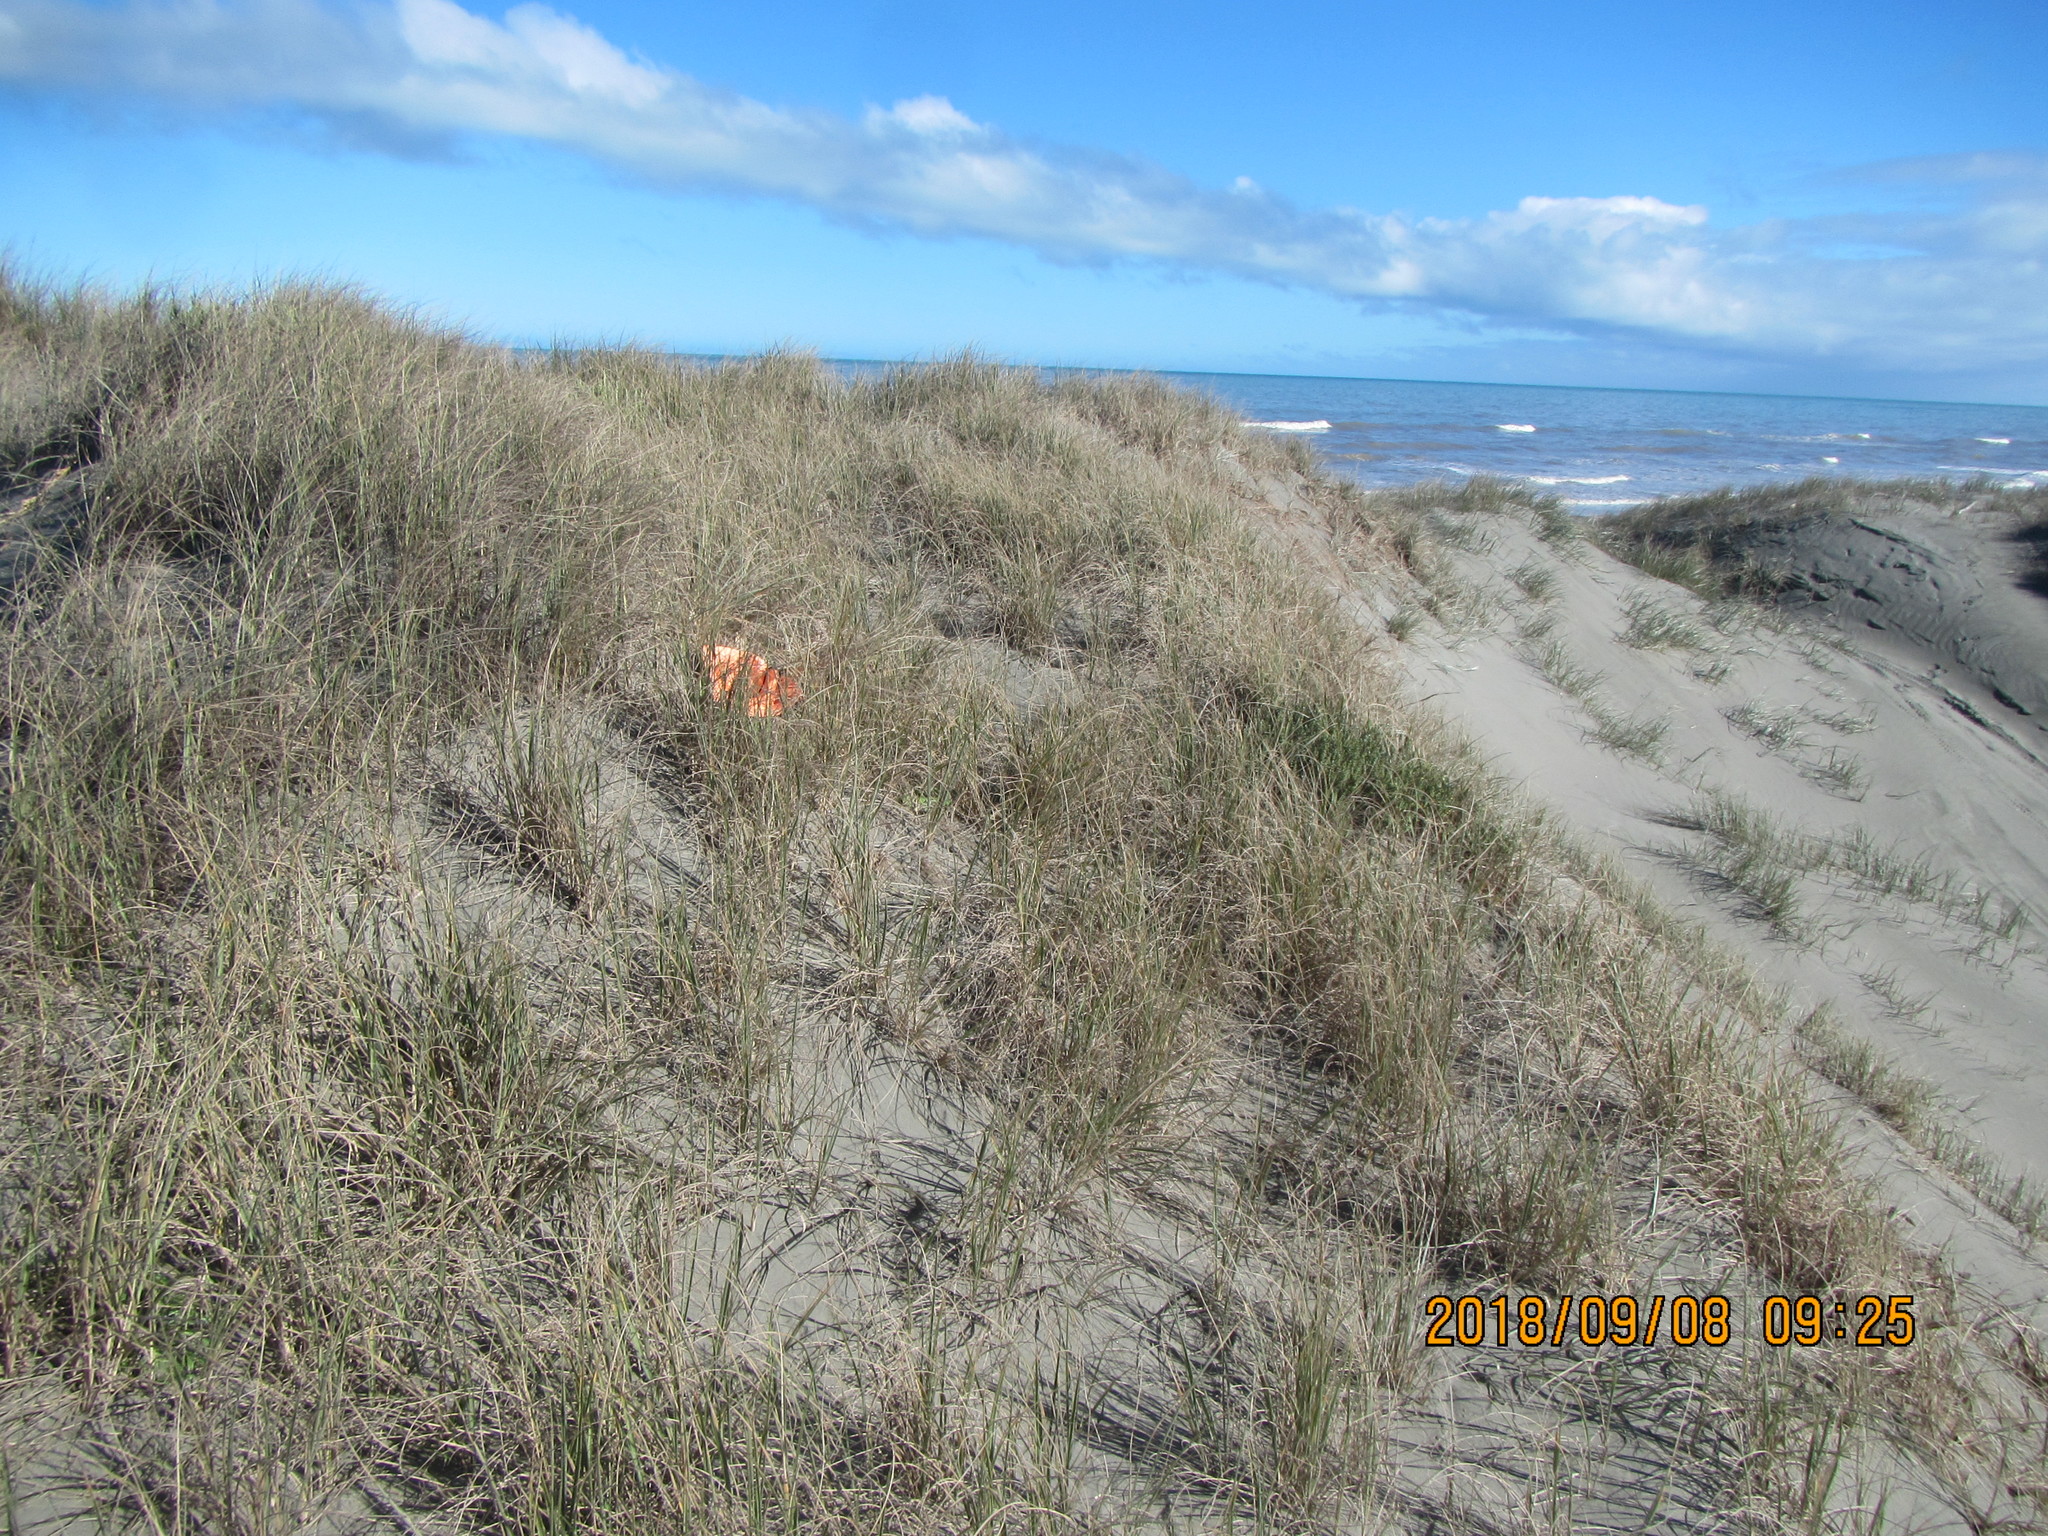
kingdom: Animalia
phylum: Arthropoda
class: Arachnida
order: Araneae
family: Mimetidae
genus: Australomimetus
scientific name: Australomimetus hartleyensis
